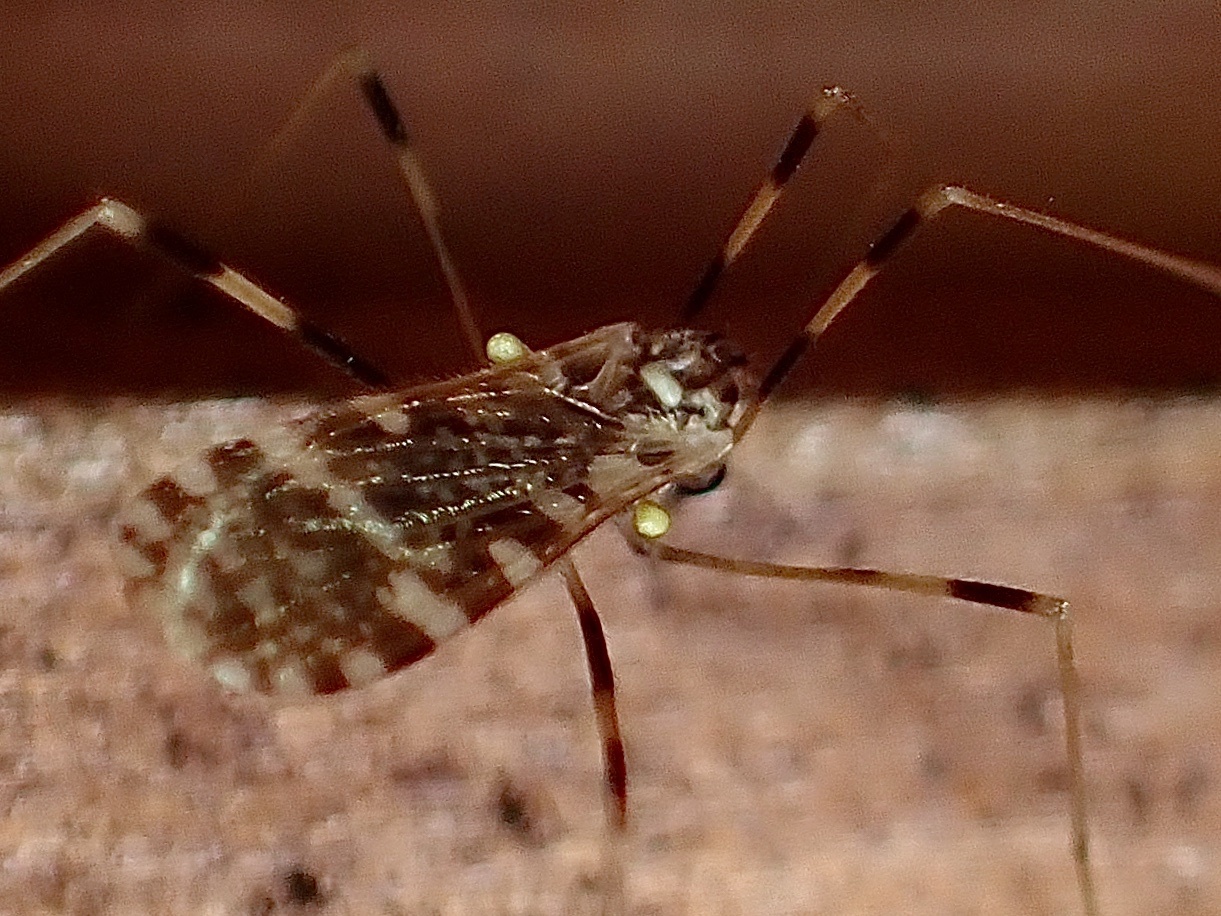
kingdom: Animalia
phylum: Arthropoda
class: Insecta
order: Diptera
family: Limoniidae
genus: Erioptera
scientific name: Erioptera caliptera
